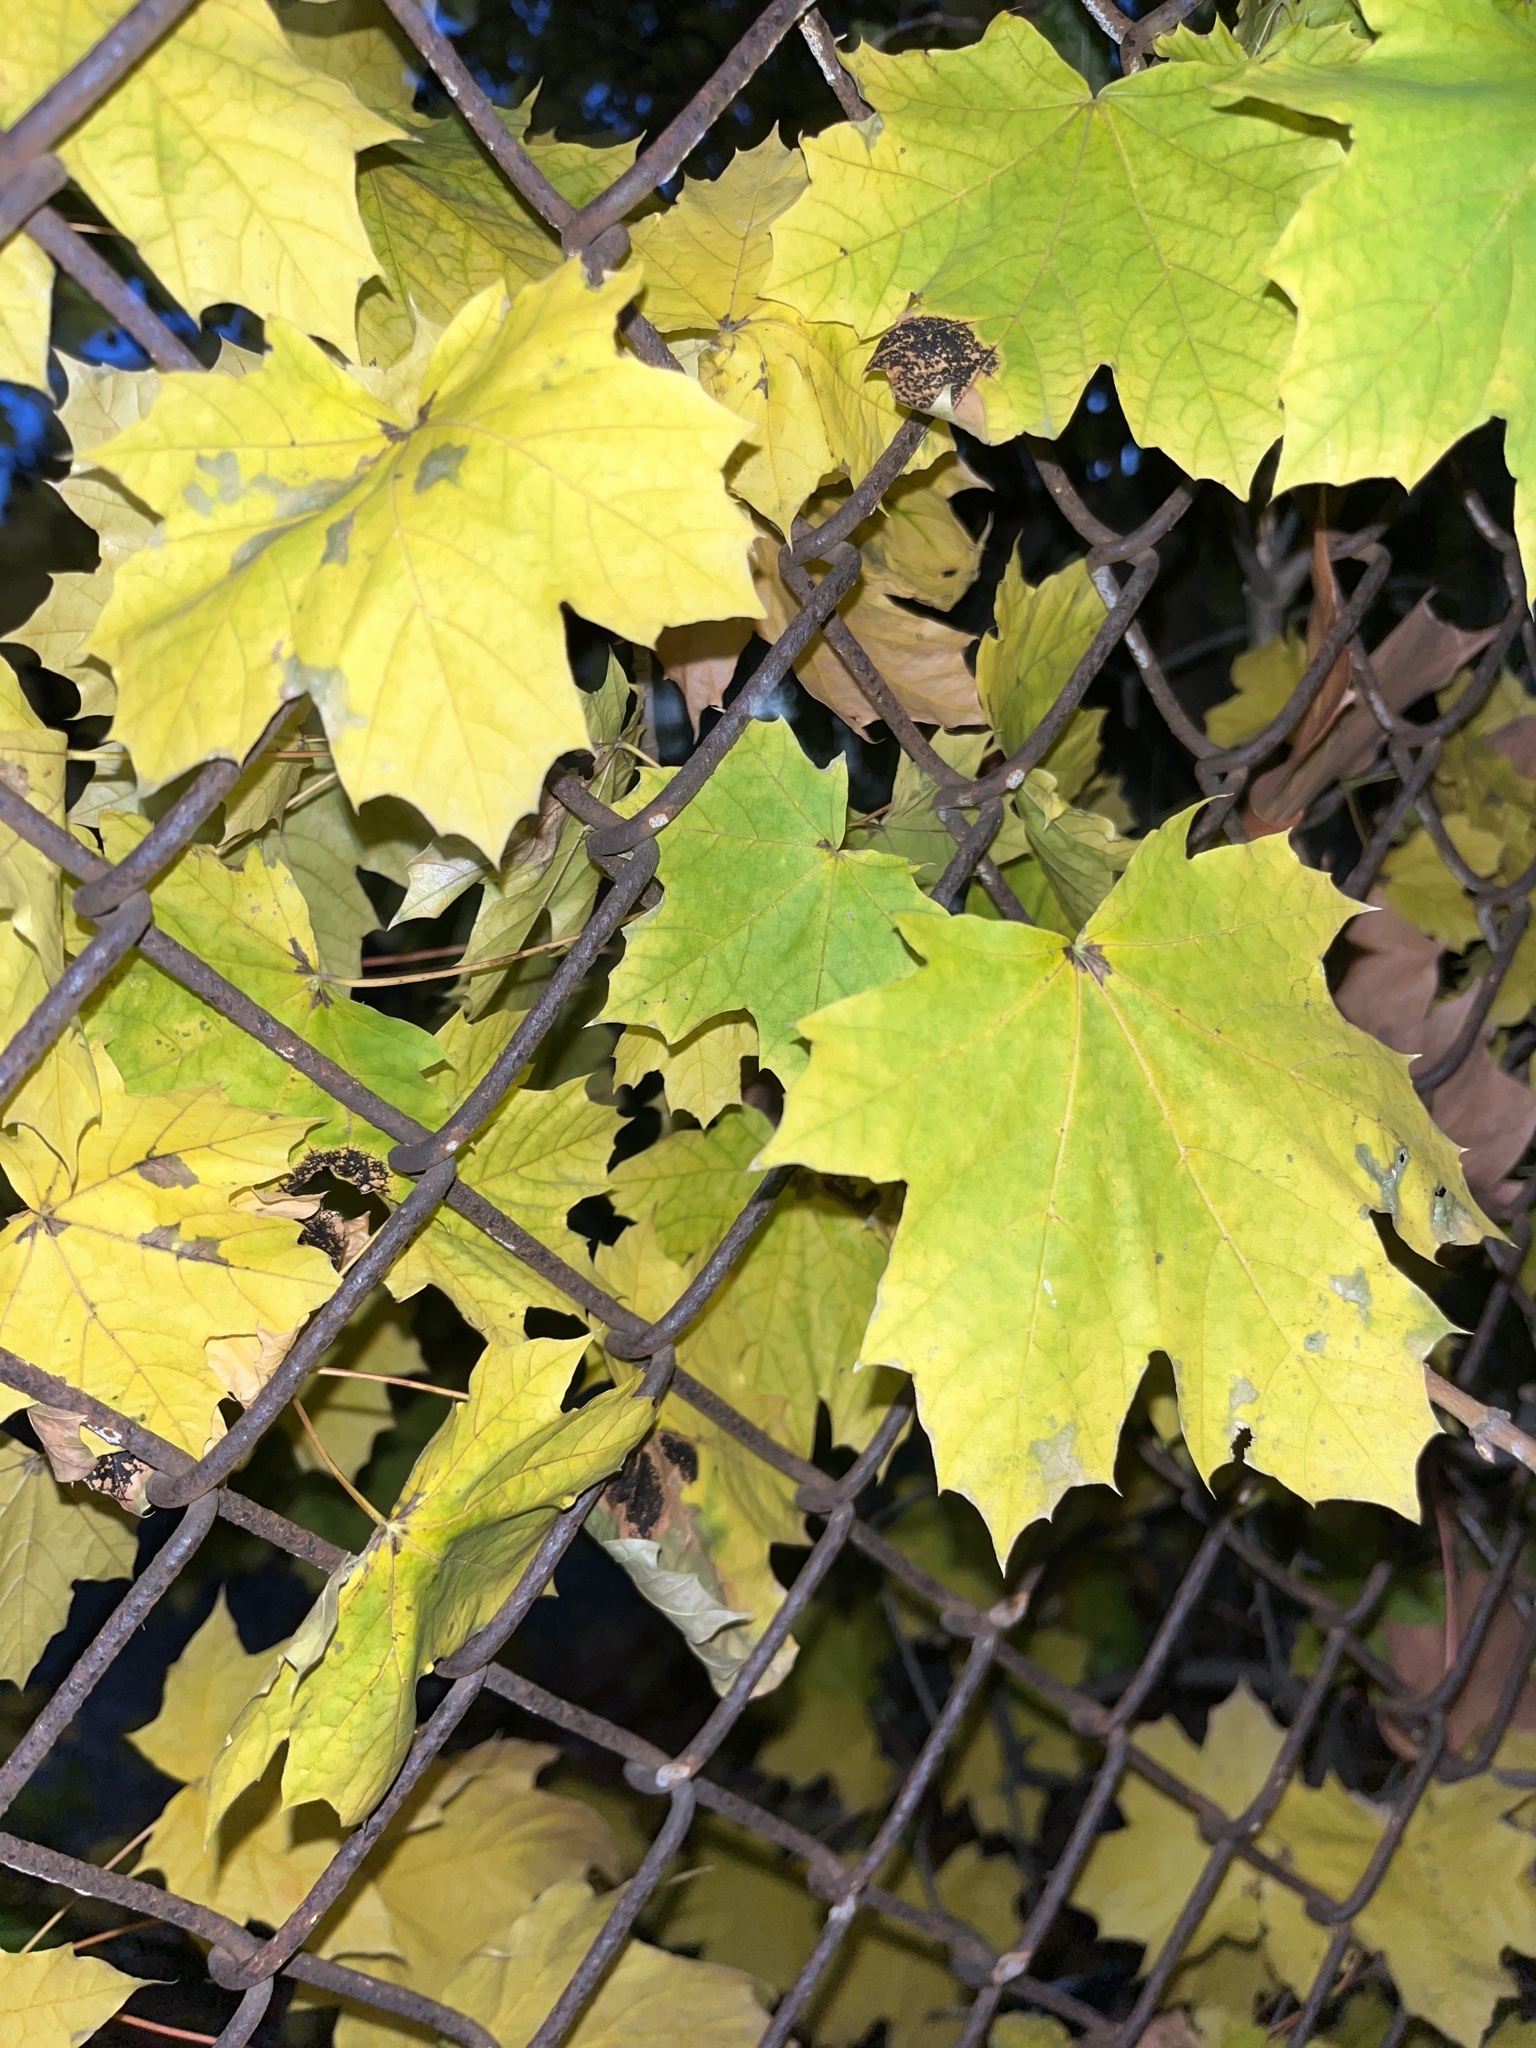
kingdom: Plantae
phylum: Tracheophyta
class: Magnoliopsida
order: Sapindales
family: Sapindaceae
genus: Acer
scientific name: Acer platanoides
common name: Norway maple
